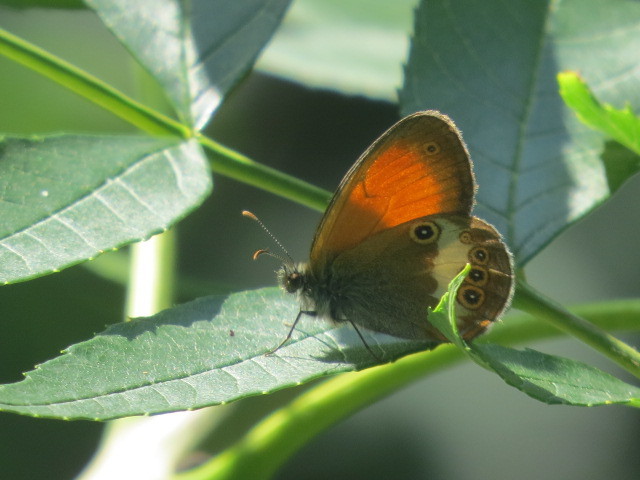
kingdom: Animalia
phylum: Arthropoda
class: Insecta
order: Lepidoptera
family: Nymphalidae
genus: Coenonympha
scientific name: Coenonympha arcania
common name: Pearly heath
